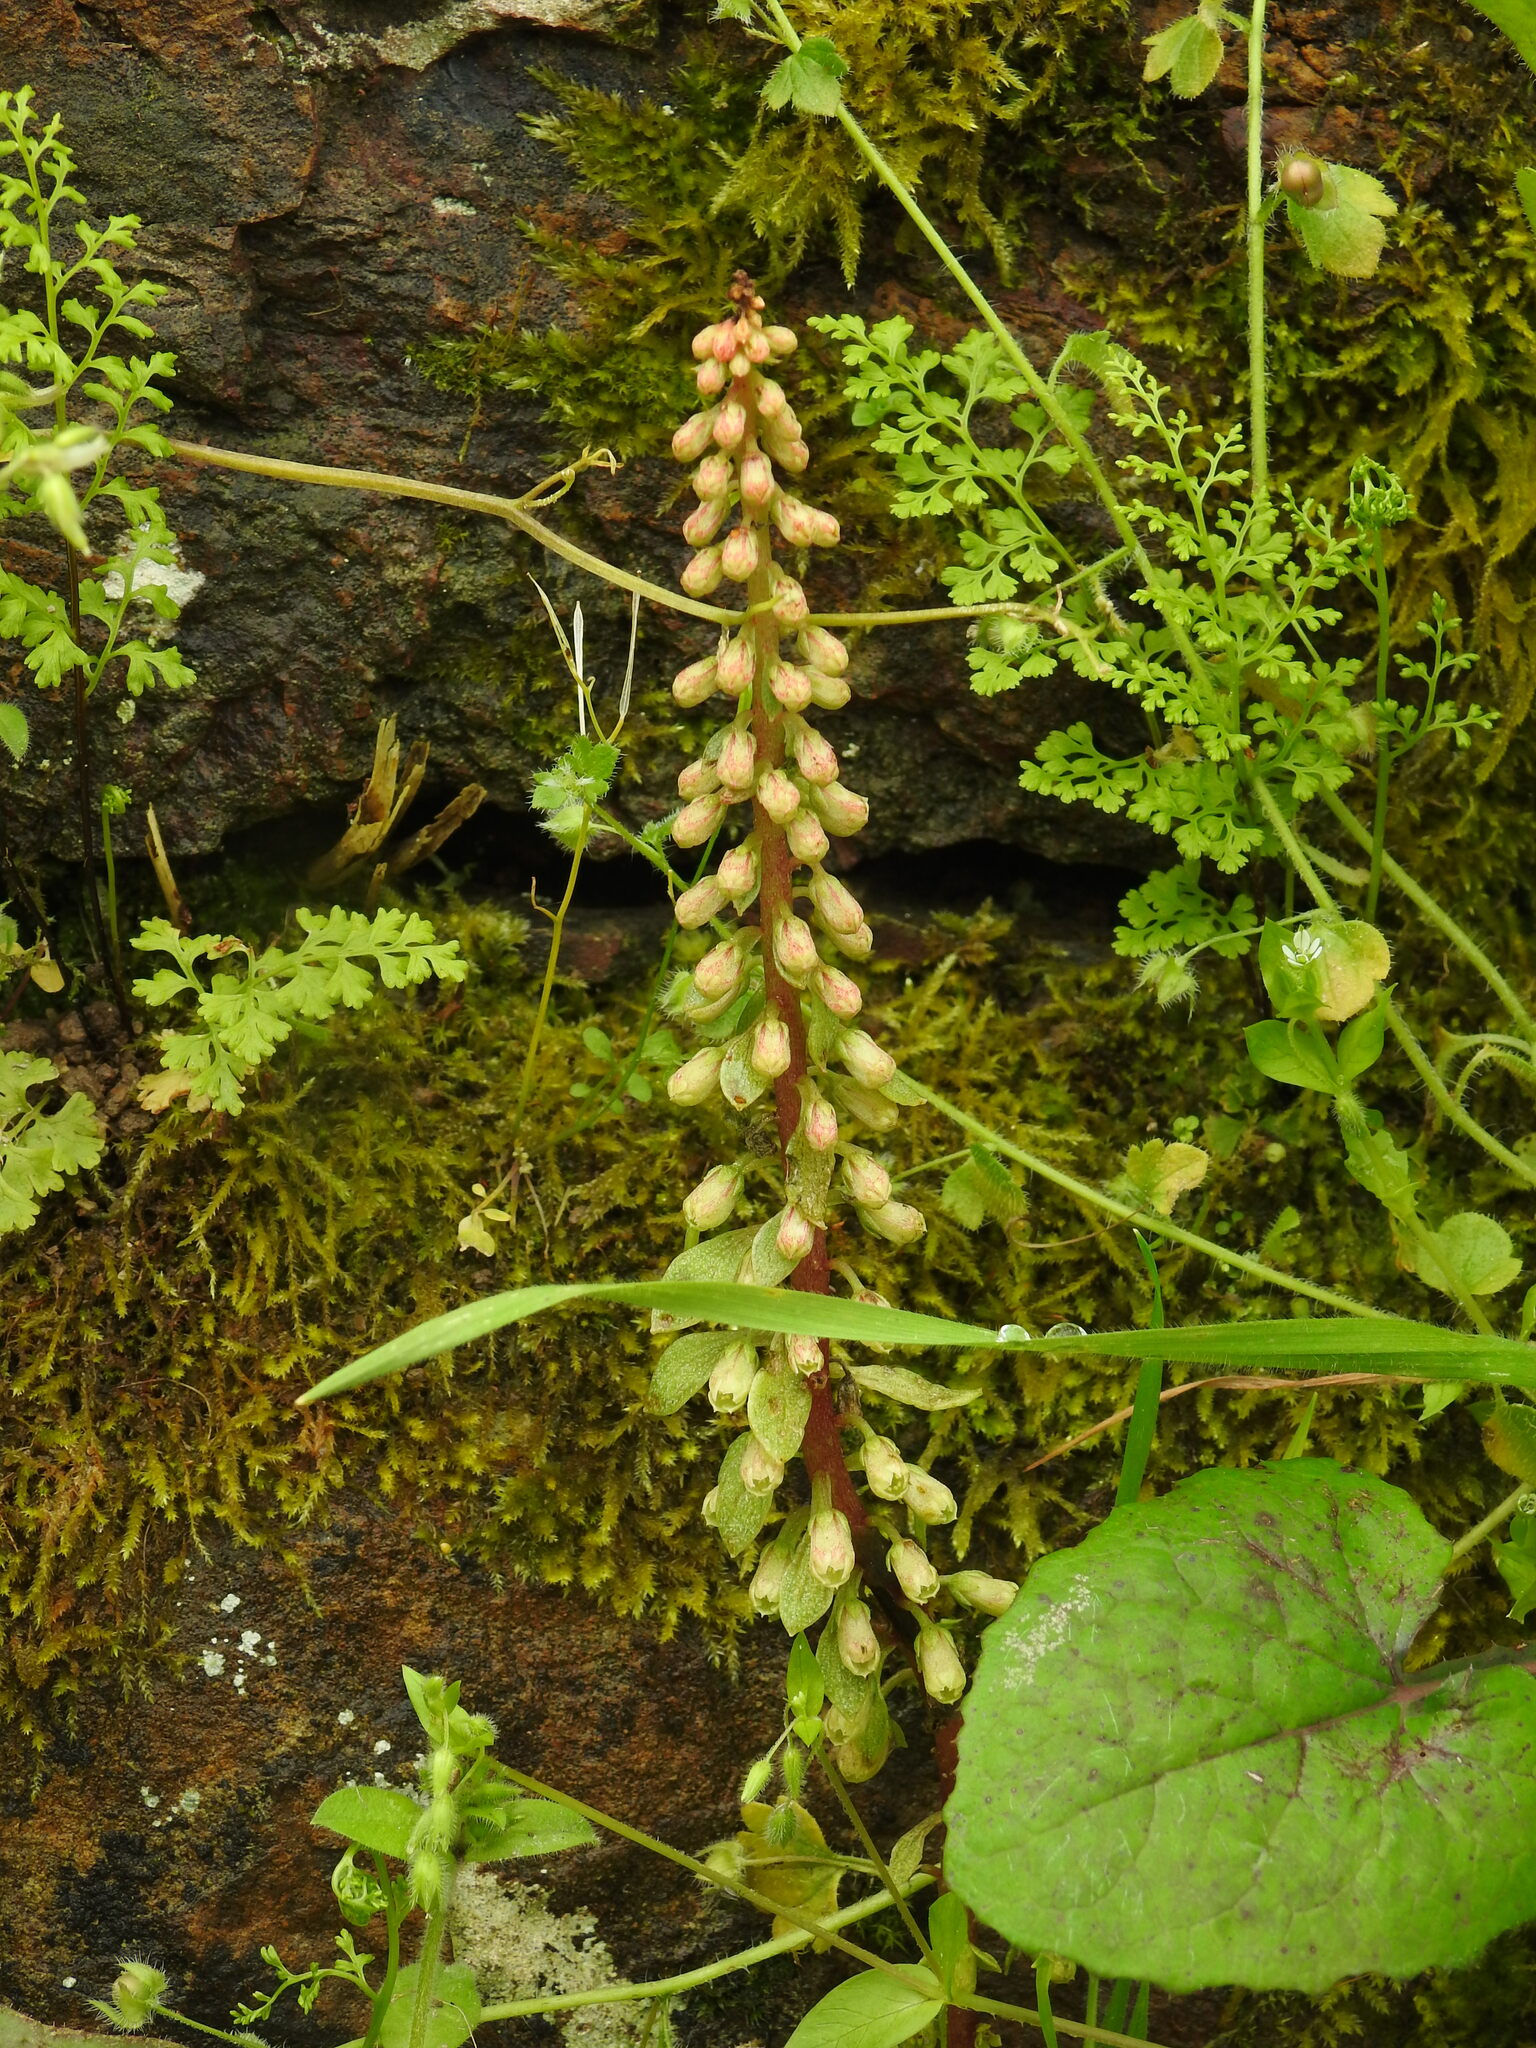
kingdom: Plantae
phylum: Tracheophyta
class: Magnoliopsida
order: Saxifragales
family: Crassulaceae
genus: Umbilicus
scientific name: Umbilicus rupestris
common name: Navelwort
